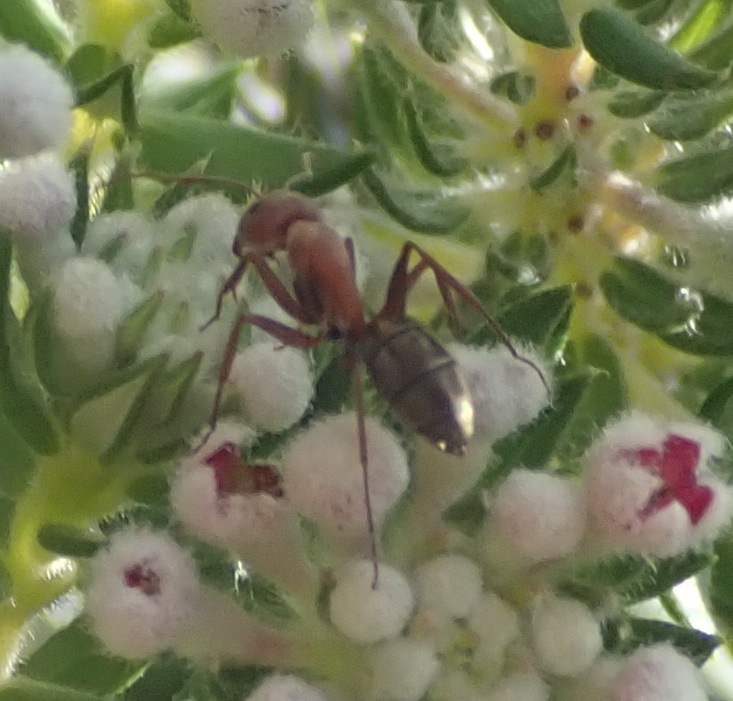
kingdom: Plantae
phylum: Tracheophyta
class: Magnoliopsida
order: Rosales
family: Rhamnaceae
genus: Phylica
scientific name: Phylica pinea
